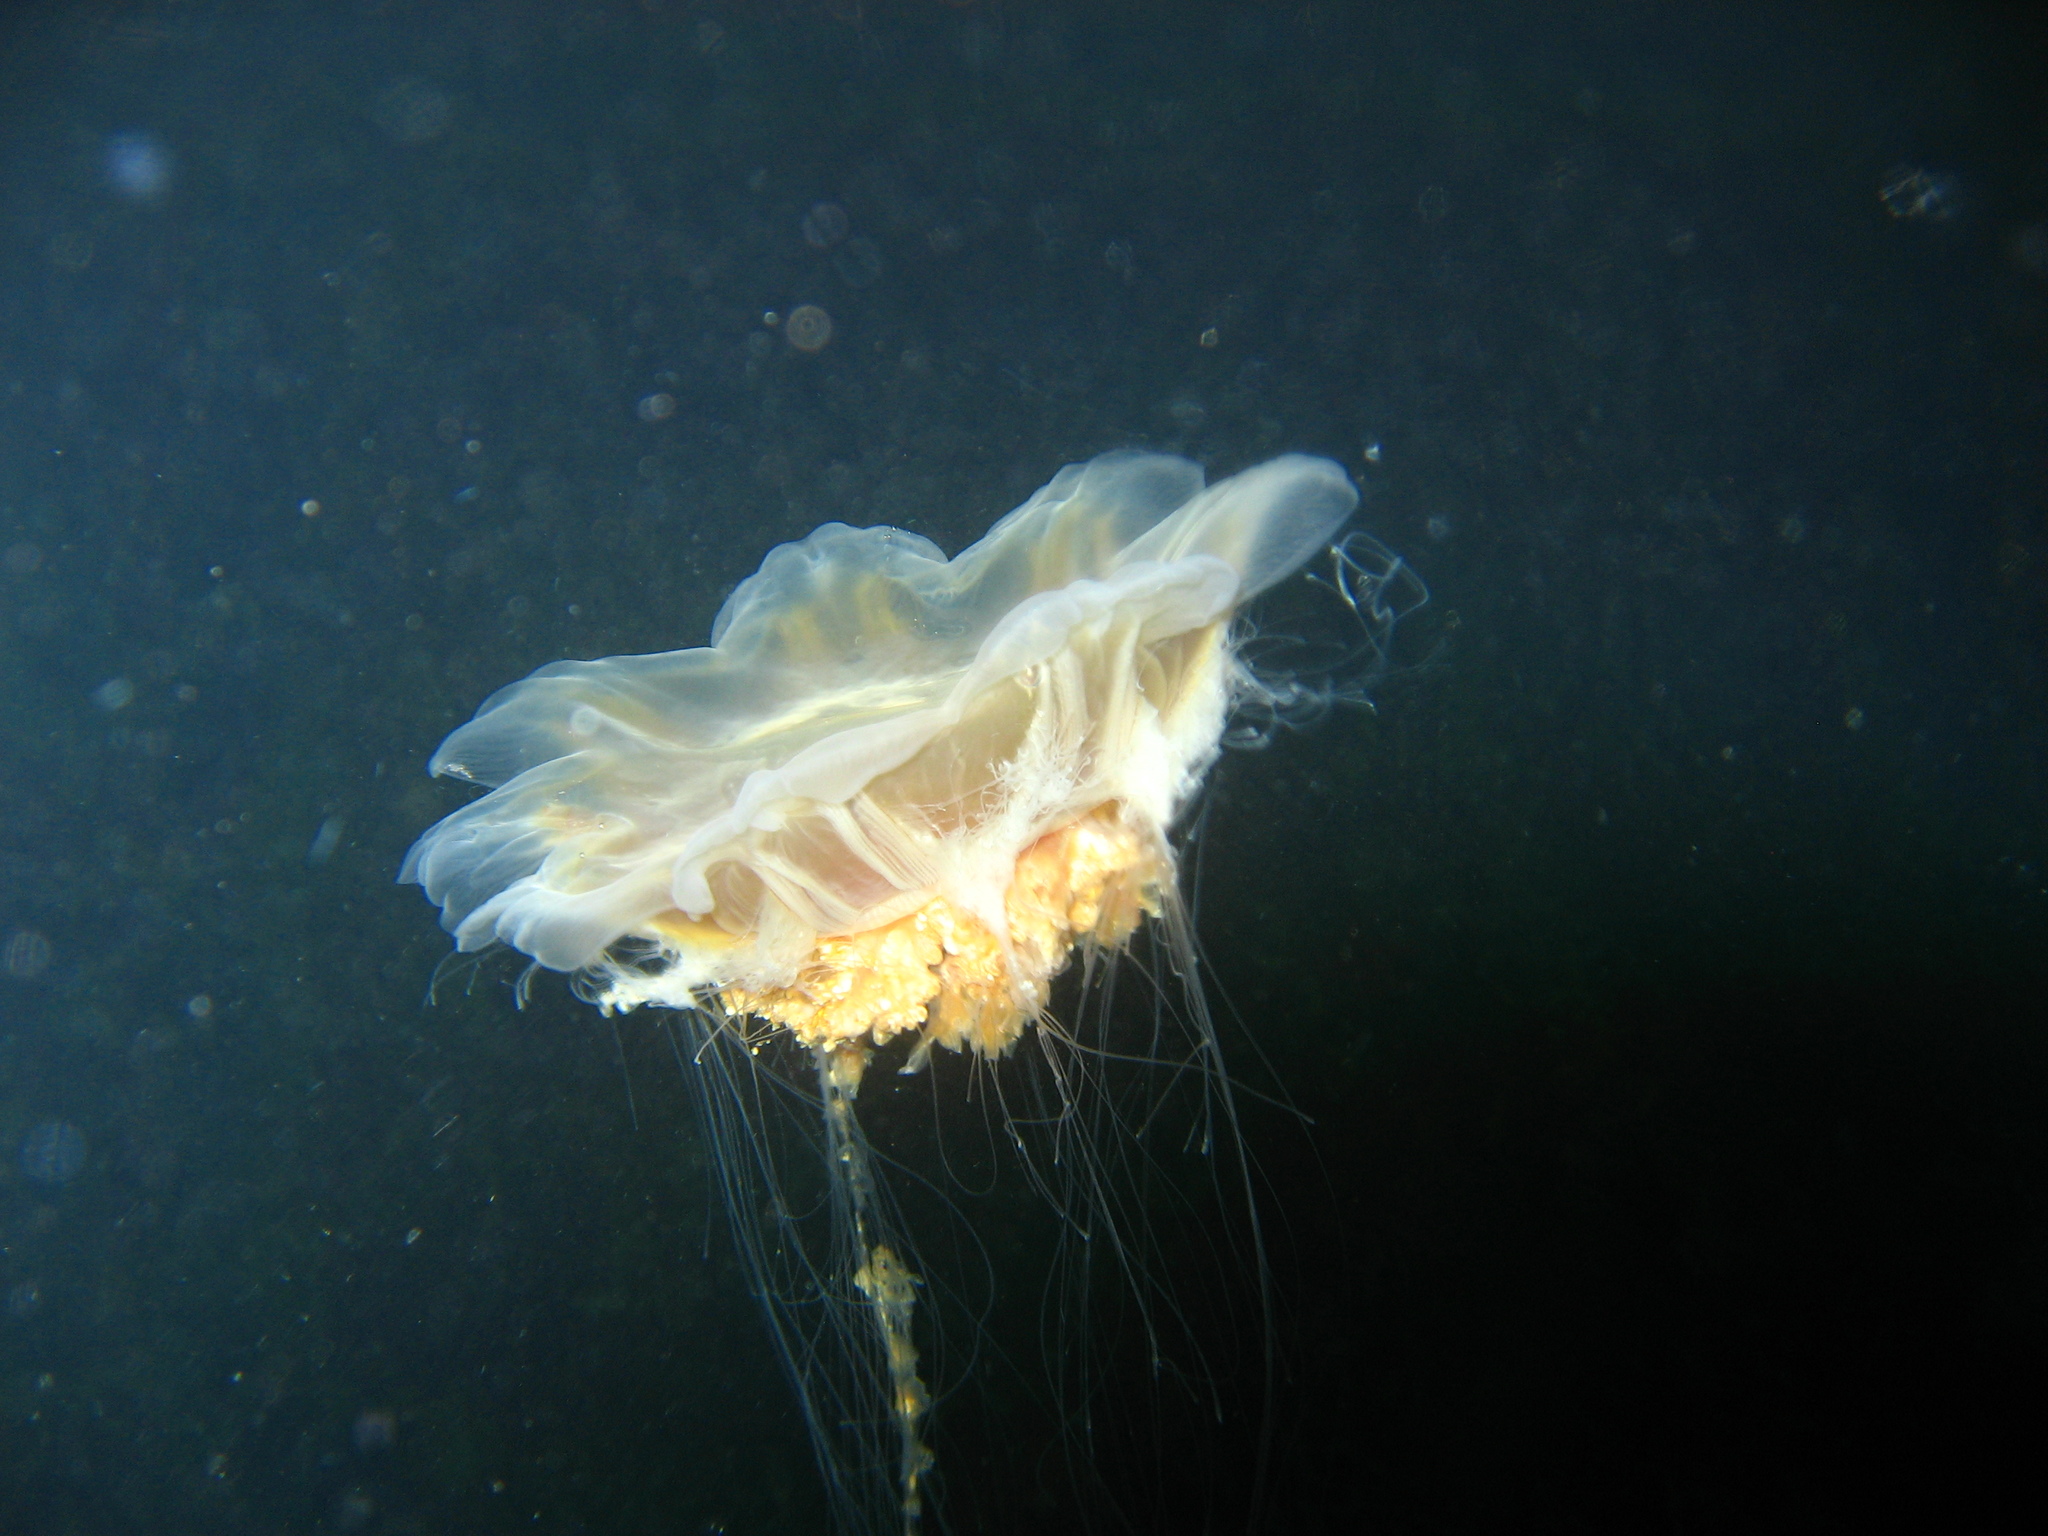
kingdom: Animalia
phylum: Cnidaria
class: Scyphozoa
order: Semaeostomeae
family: Cyaneidae
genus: Cyanea
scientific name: Cyanea ferruginea
